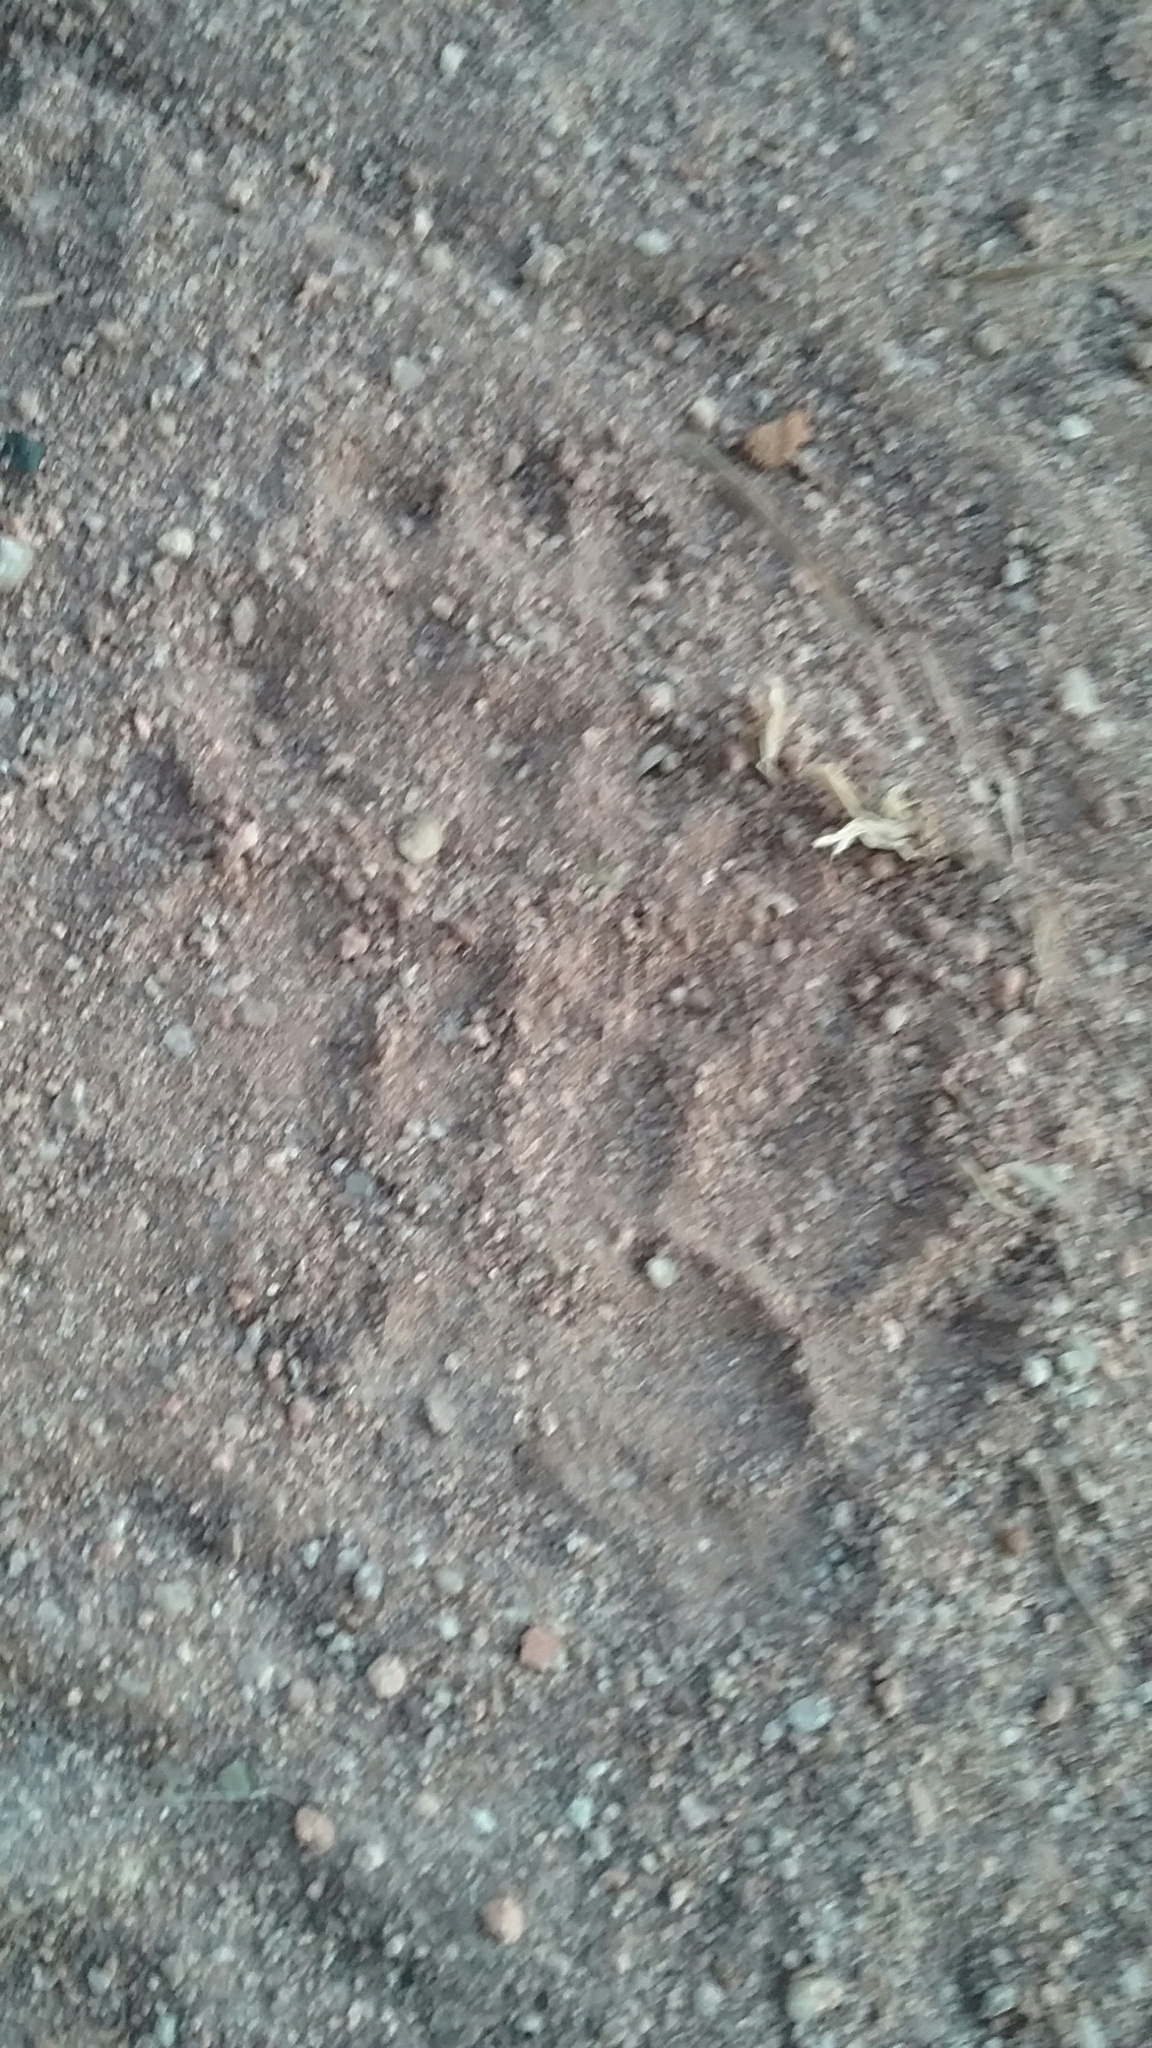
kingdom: Animalia
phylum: Chordata
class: Mammalia
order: Carnivora
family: Mustelidae
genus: Mellivora
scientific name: Mellivora capensis
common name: Honey badger
